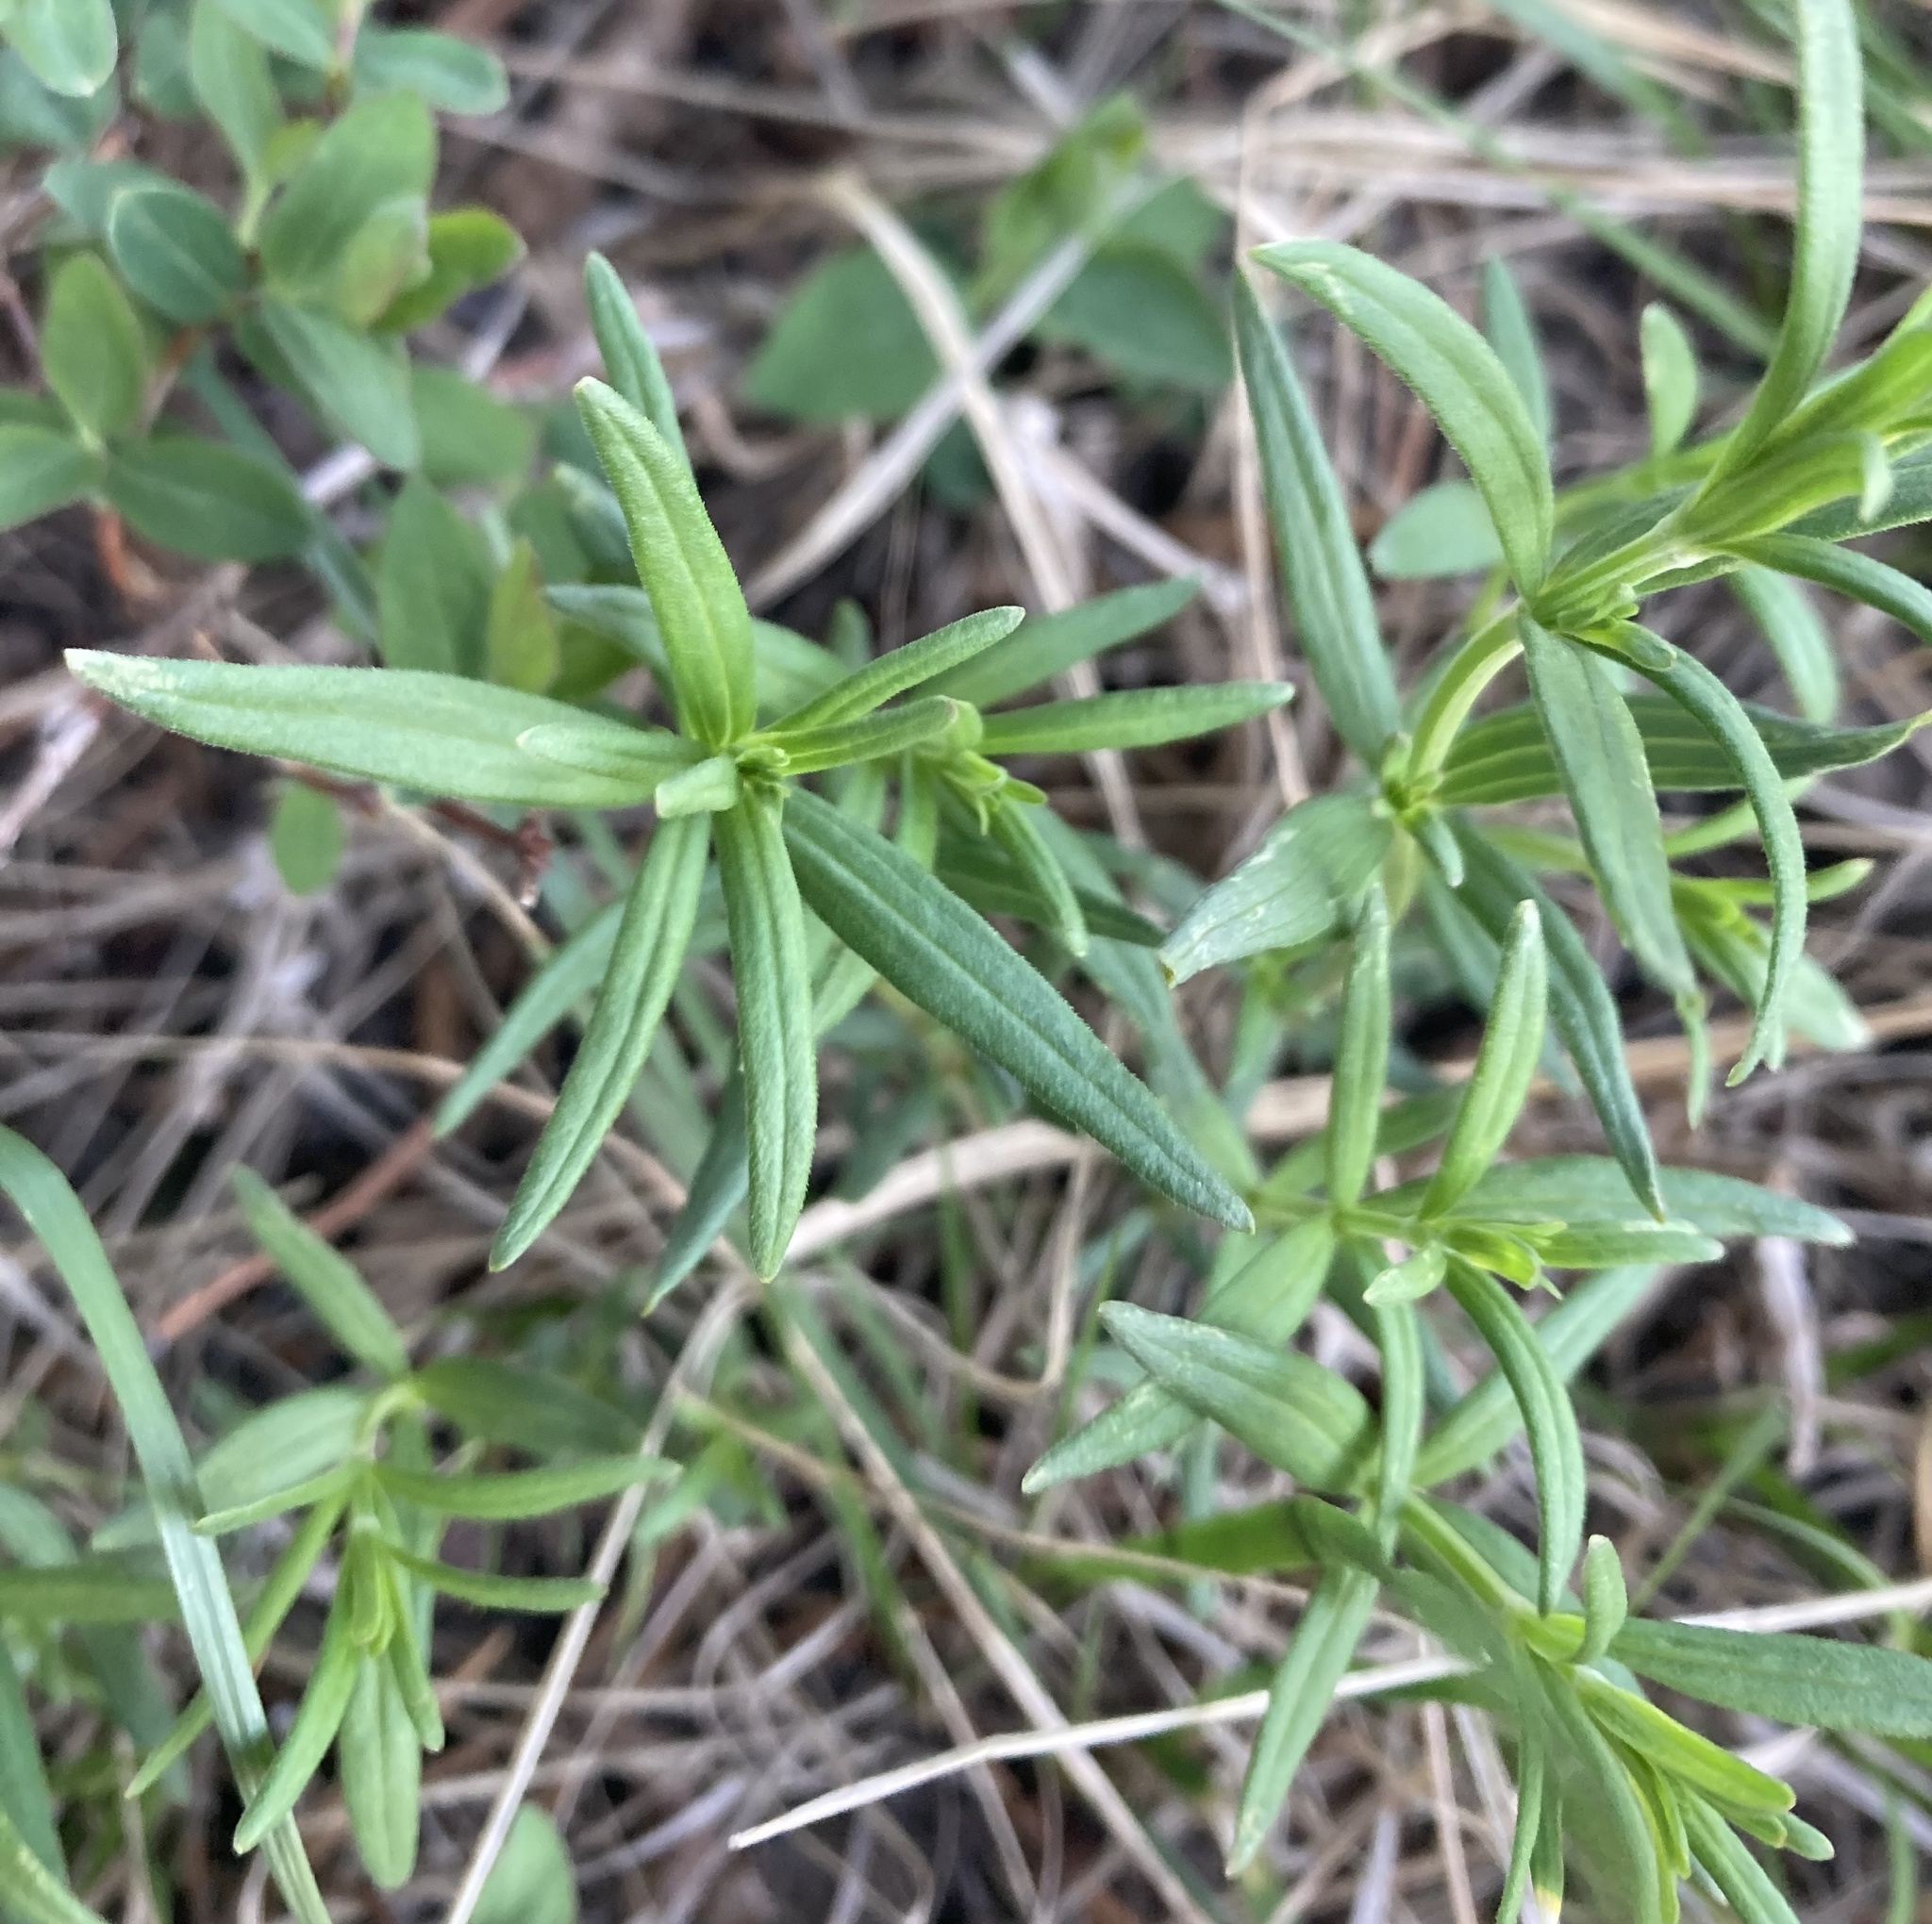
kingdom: Plantae
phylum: Tracheophyta
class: Magnoliopsida
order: Gentianales
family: Rubiaceae
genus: Galium
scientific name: Galium boreale
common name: Northern bedstraw
